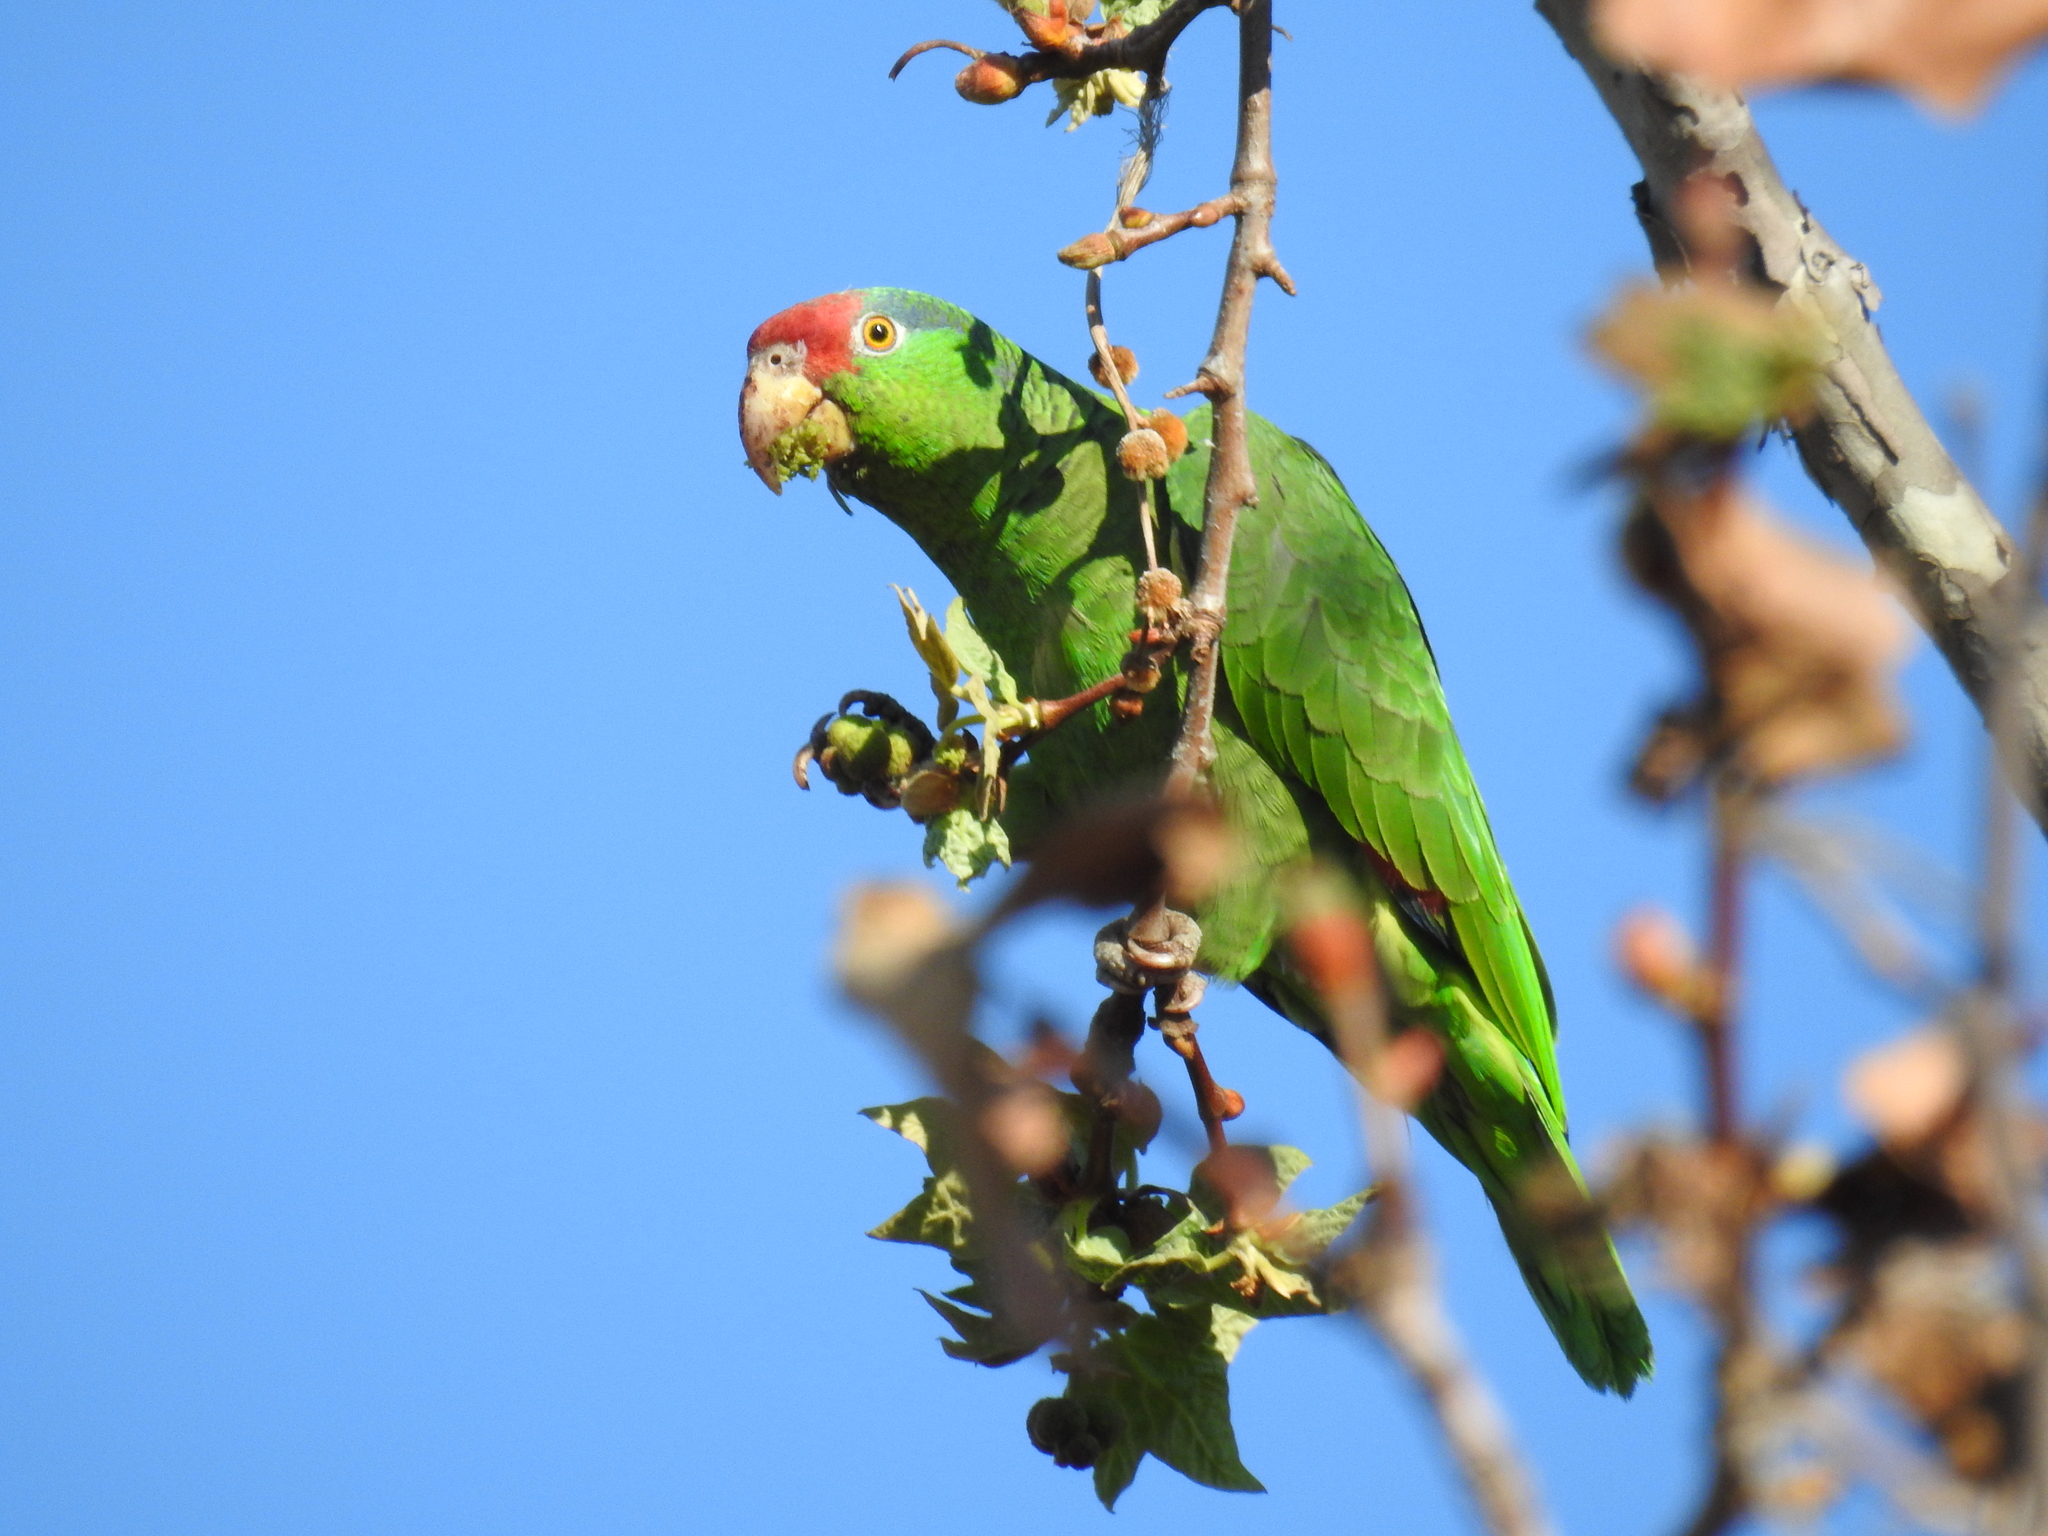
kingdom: Animalia
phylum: Chordata
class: Aves
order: Psittaciformes
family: Psittacidae
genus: Amazona
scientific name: Amazona viridigenalis
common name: Red-crowned amazon
